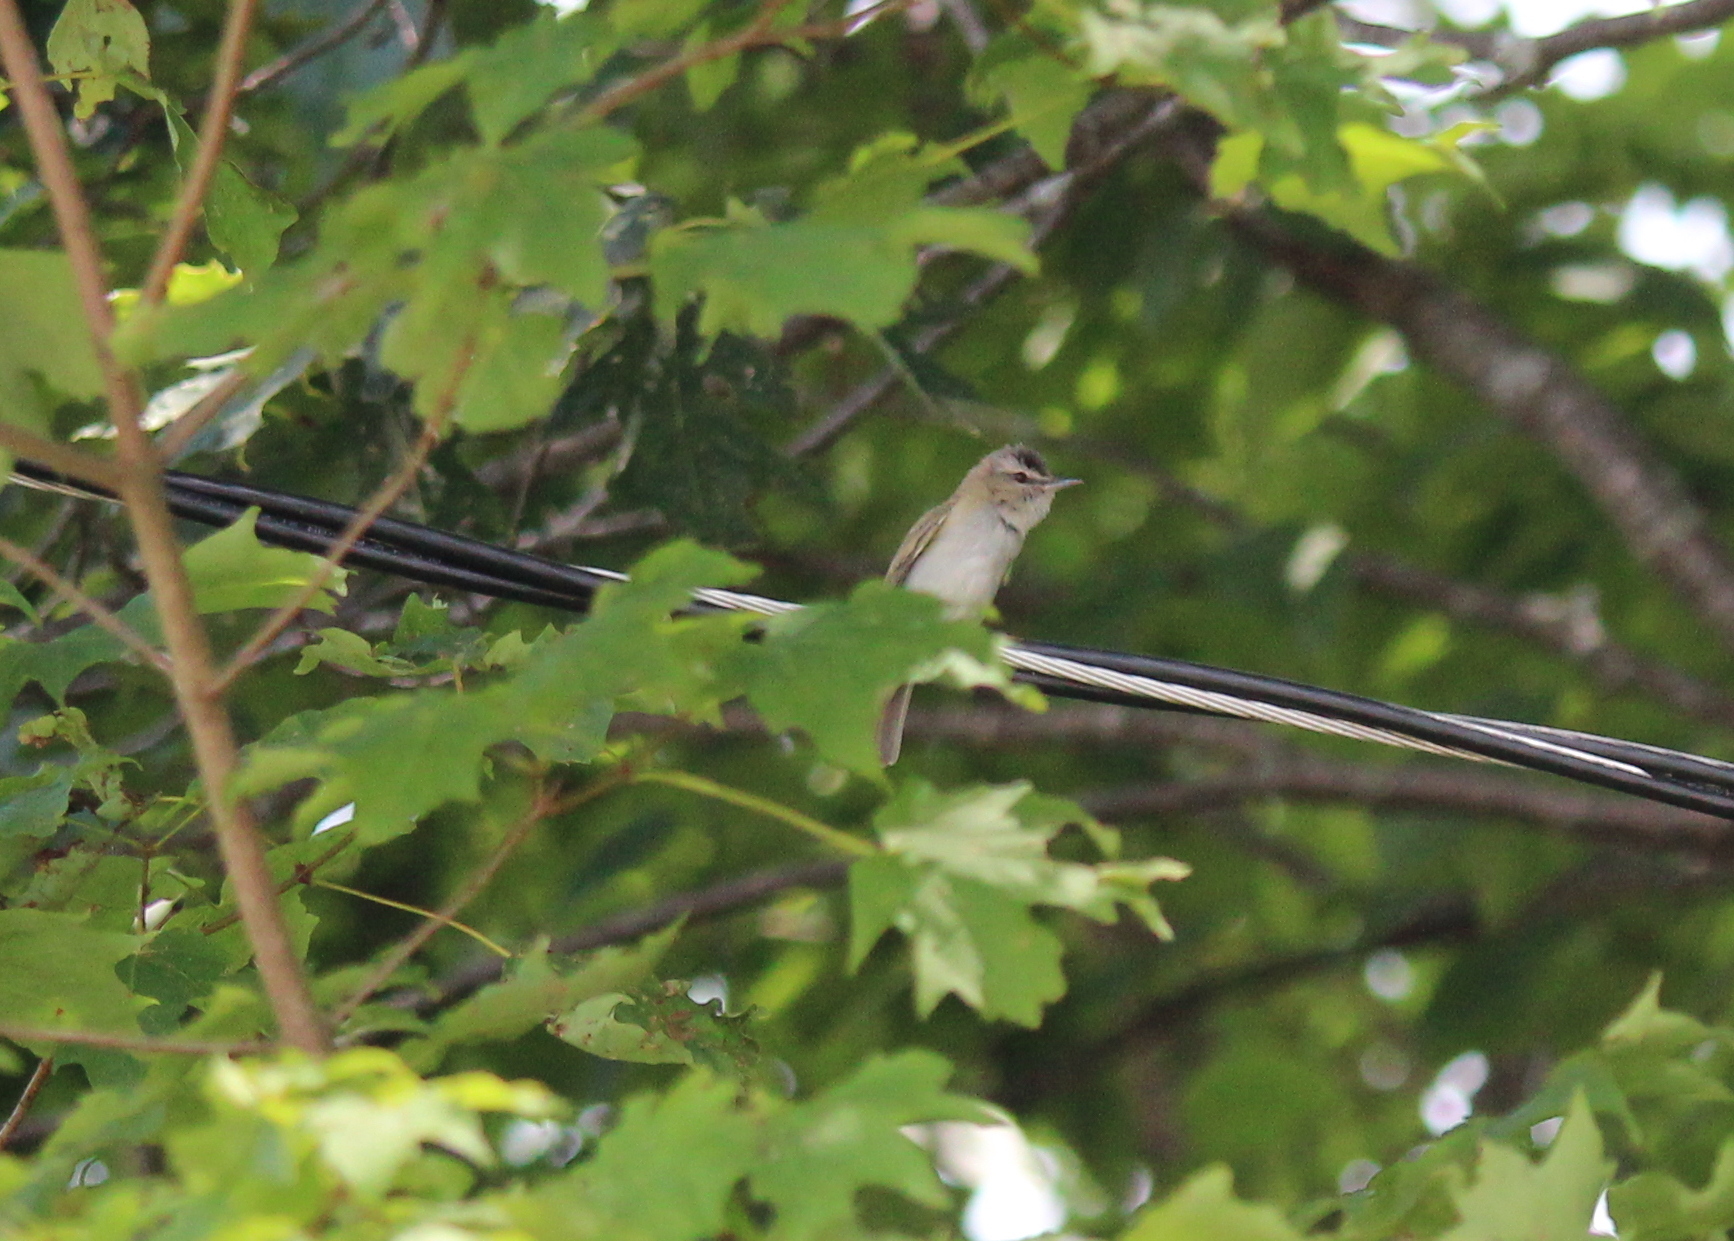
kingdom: Animalia
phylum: Chordata
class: Aves
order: Passeriformes
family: Vireonidae
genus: Vireo
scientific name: Vireo olivaceus
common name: Red-eyed vireo
